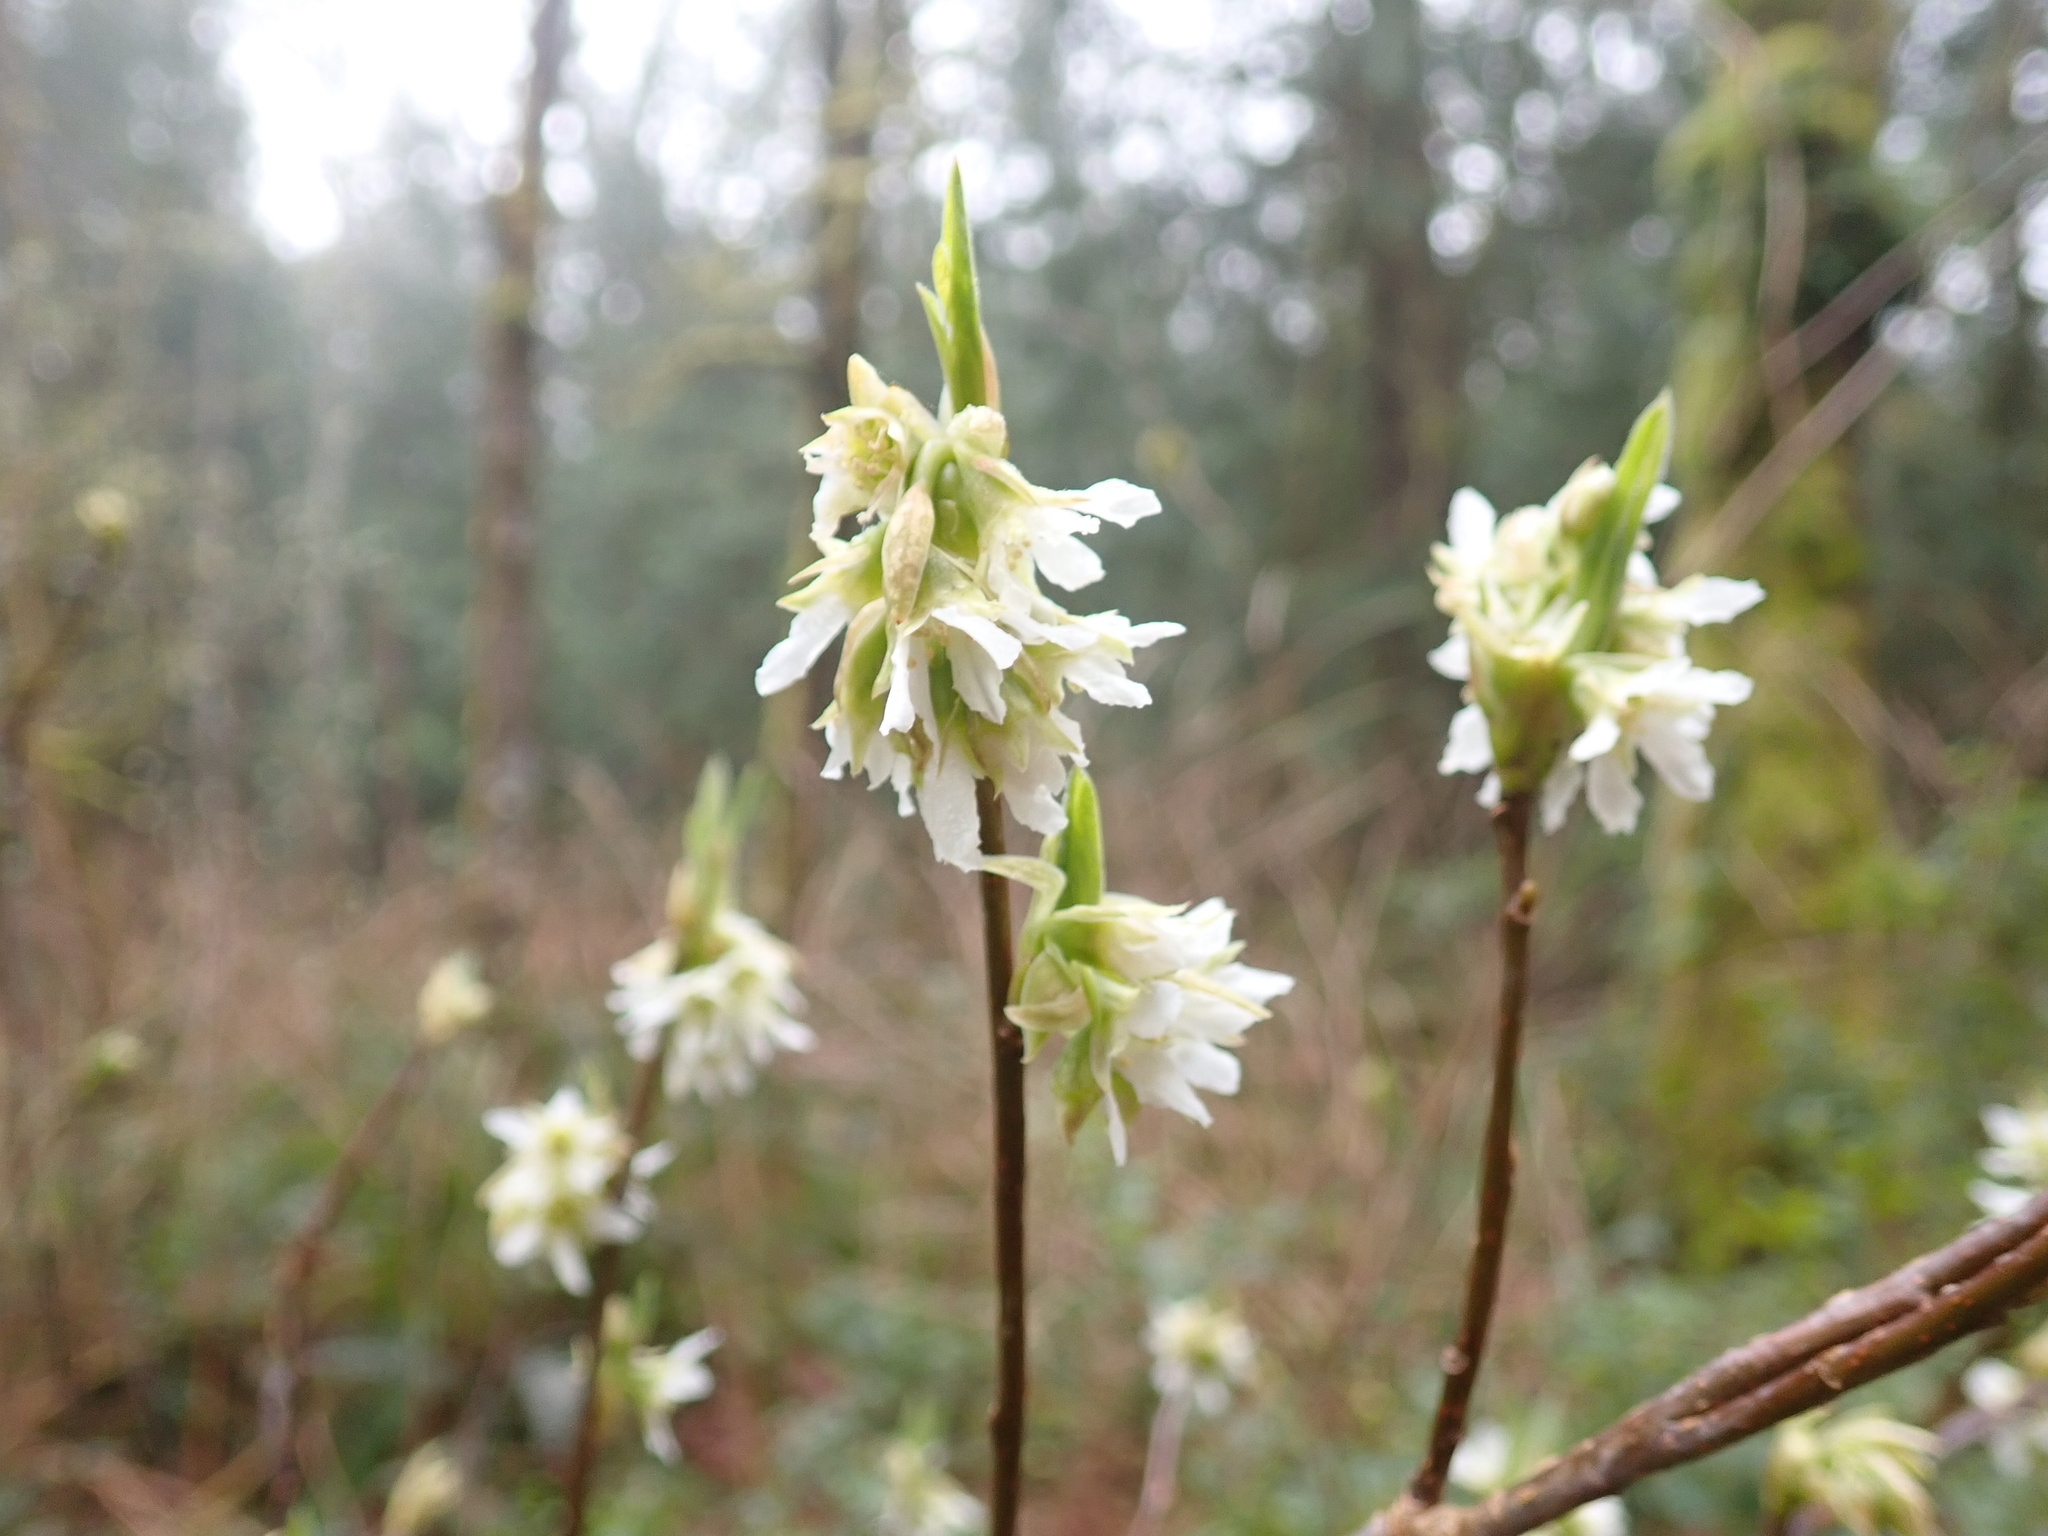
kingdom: Plantae
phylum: Tracheophyta
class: Magnoliopsida
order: Rosales
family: Rosaceae
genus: Oemleria
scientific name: Oemleria cerasiformis
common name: Osoberry
